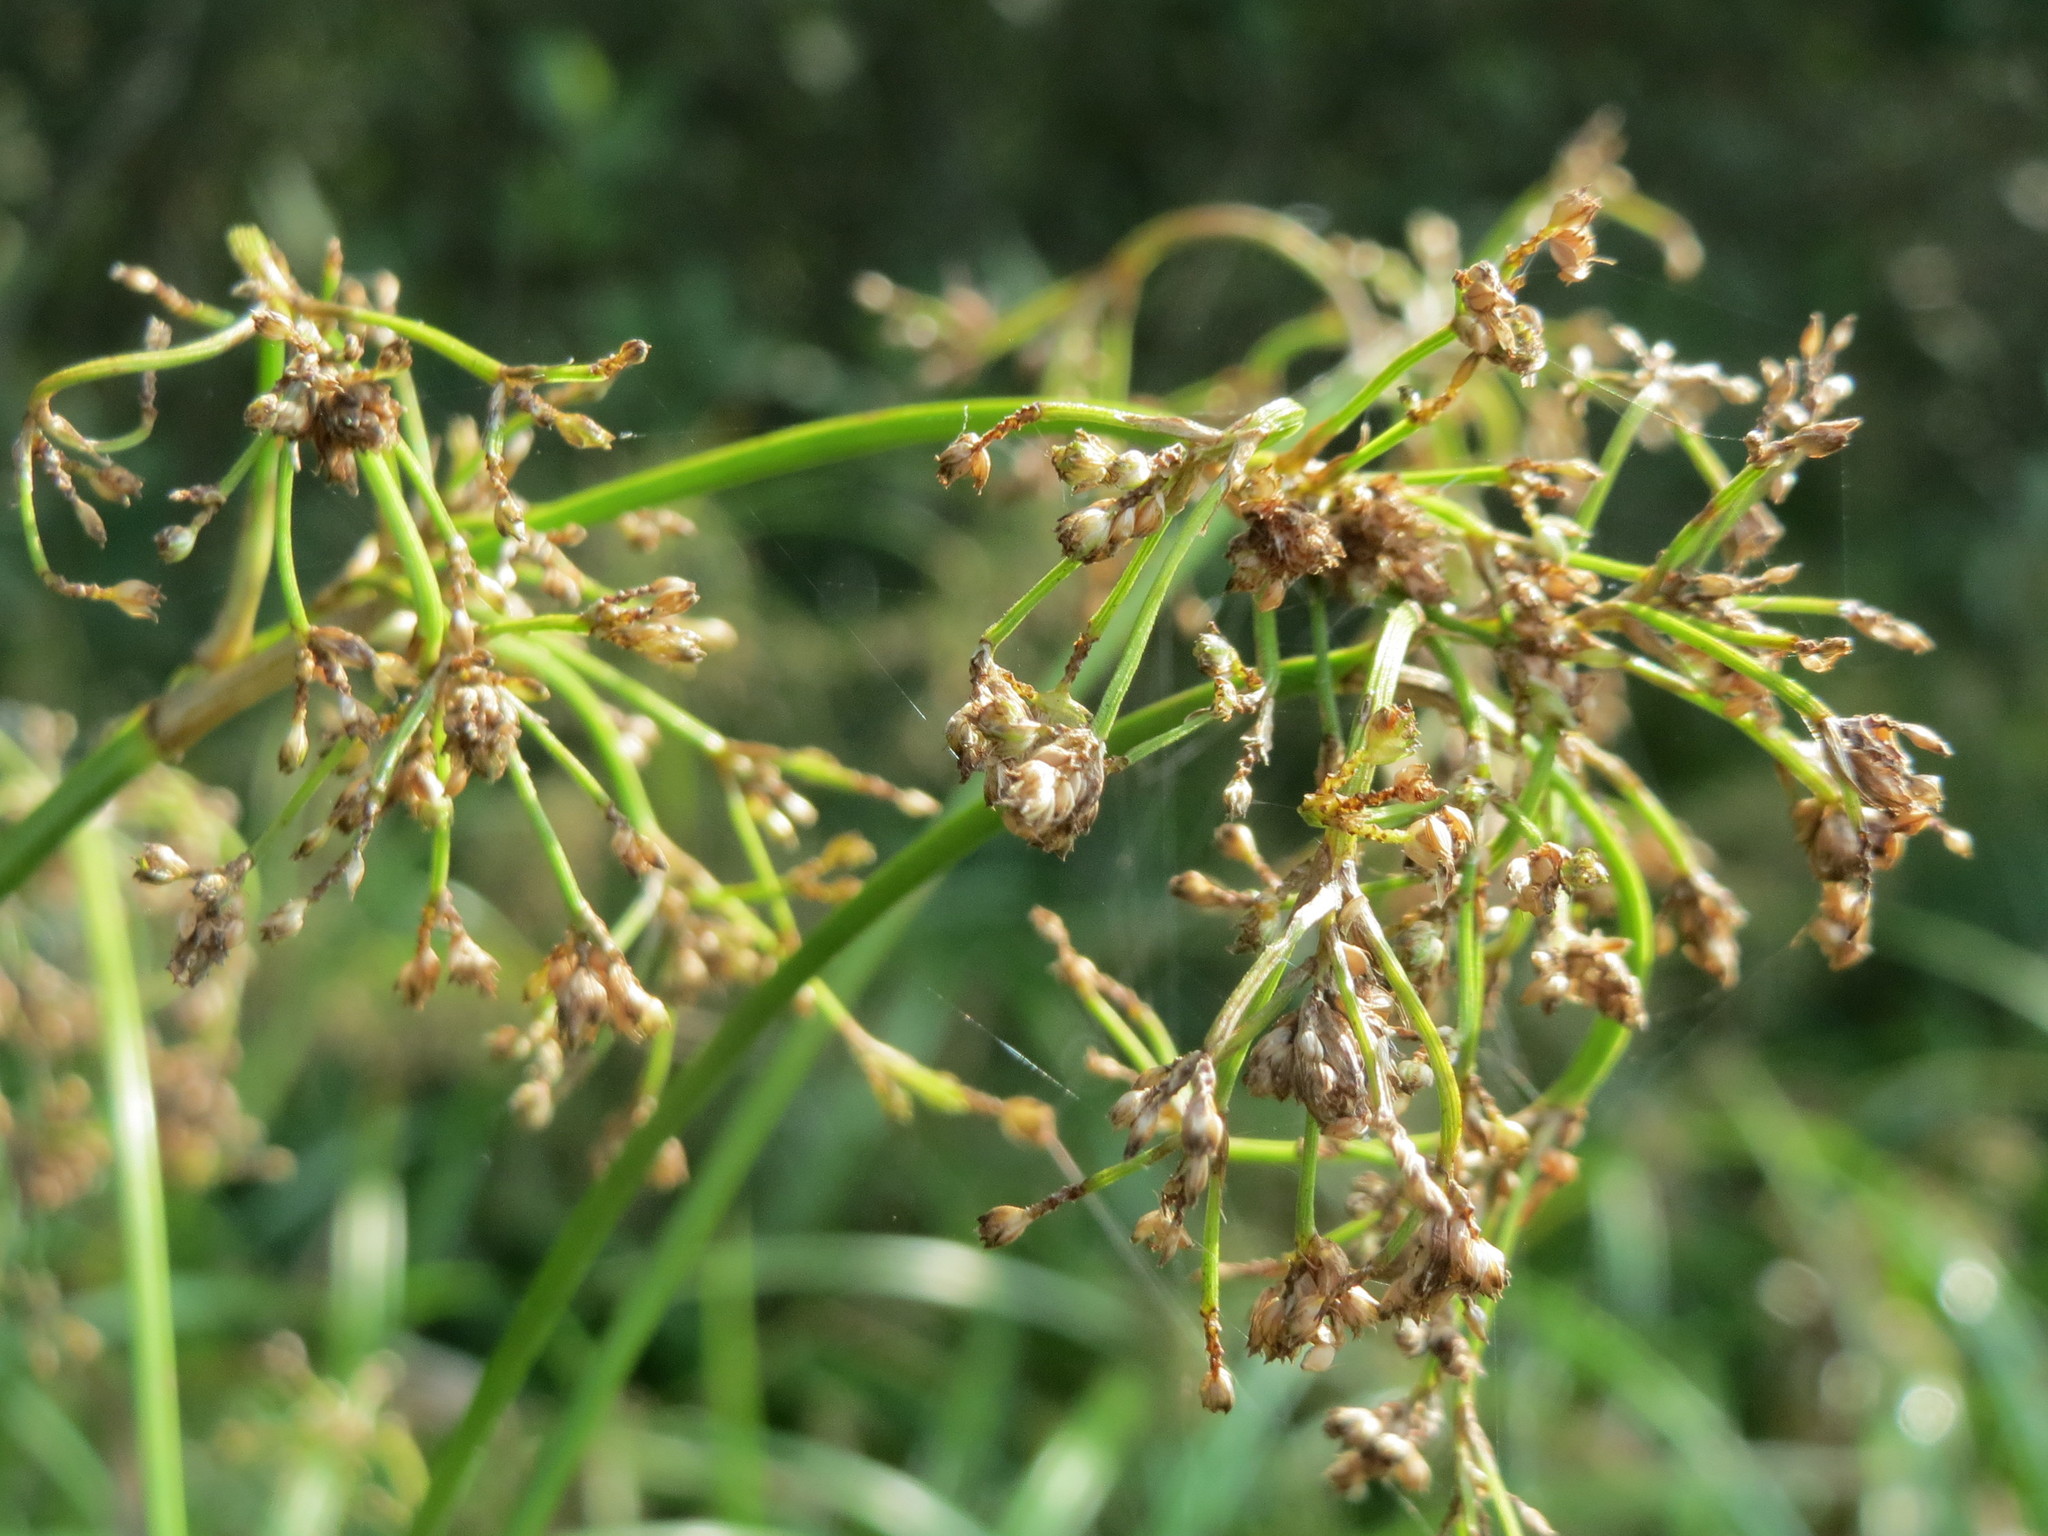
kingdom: Plantae
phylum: Tracheophyta
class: Liliopsida
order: Poales
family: Cyperaceae
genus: Scirpus
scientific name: Scirpus sylvaticus
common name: Wood club-rush
